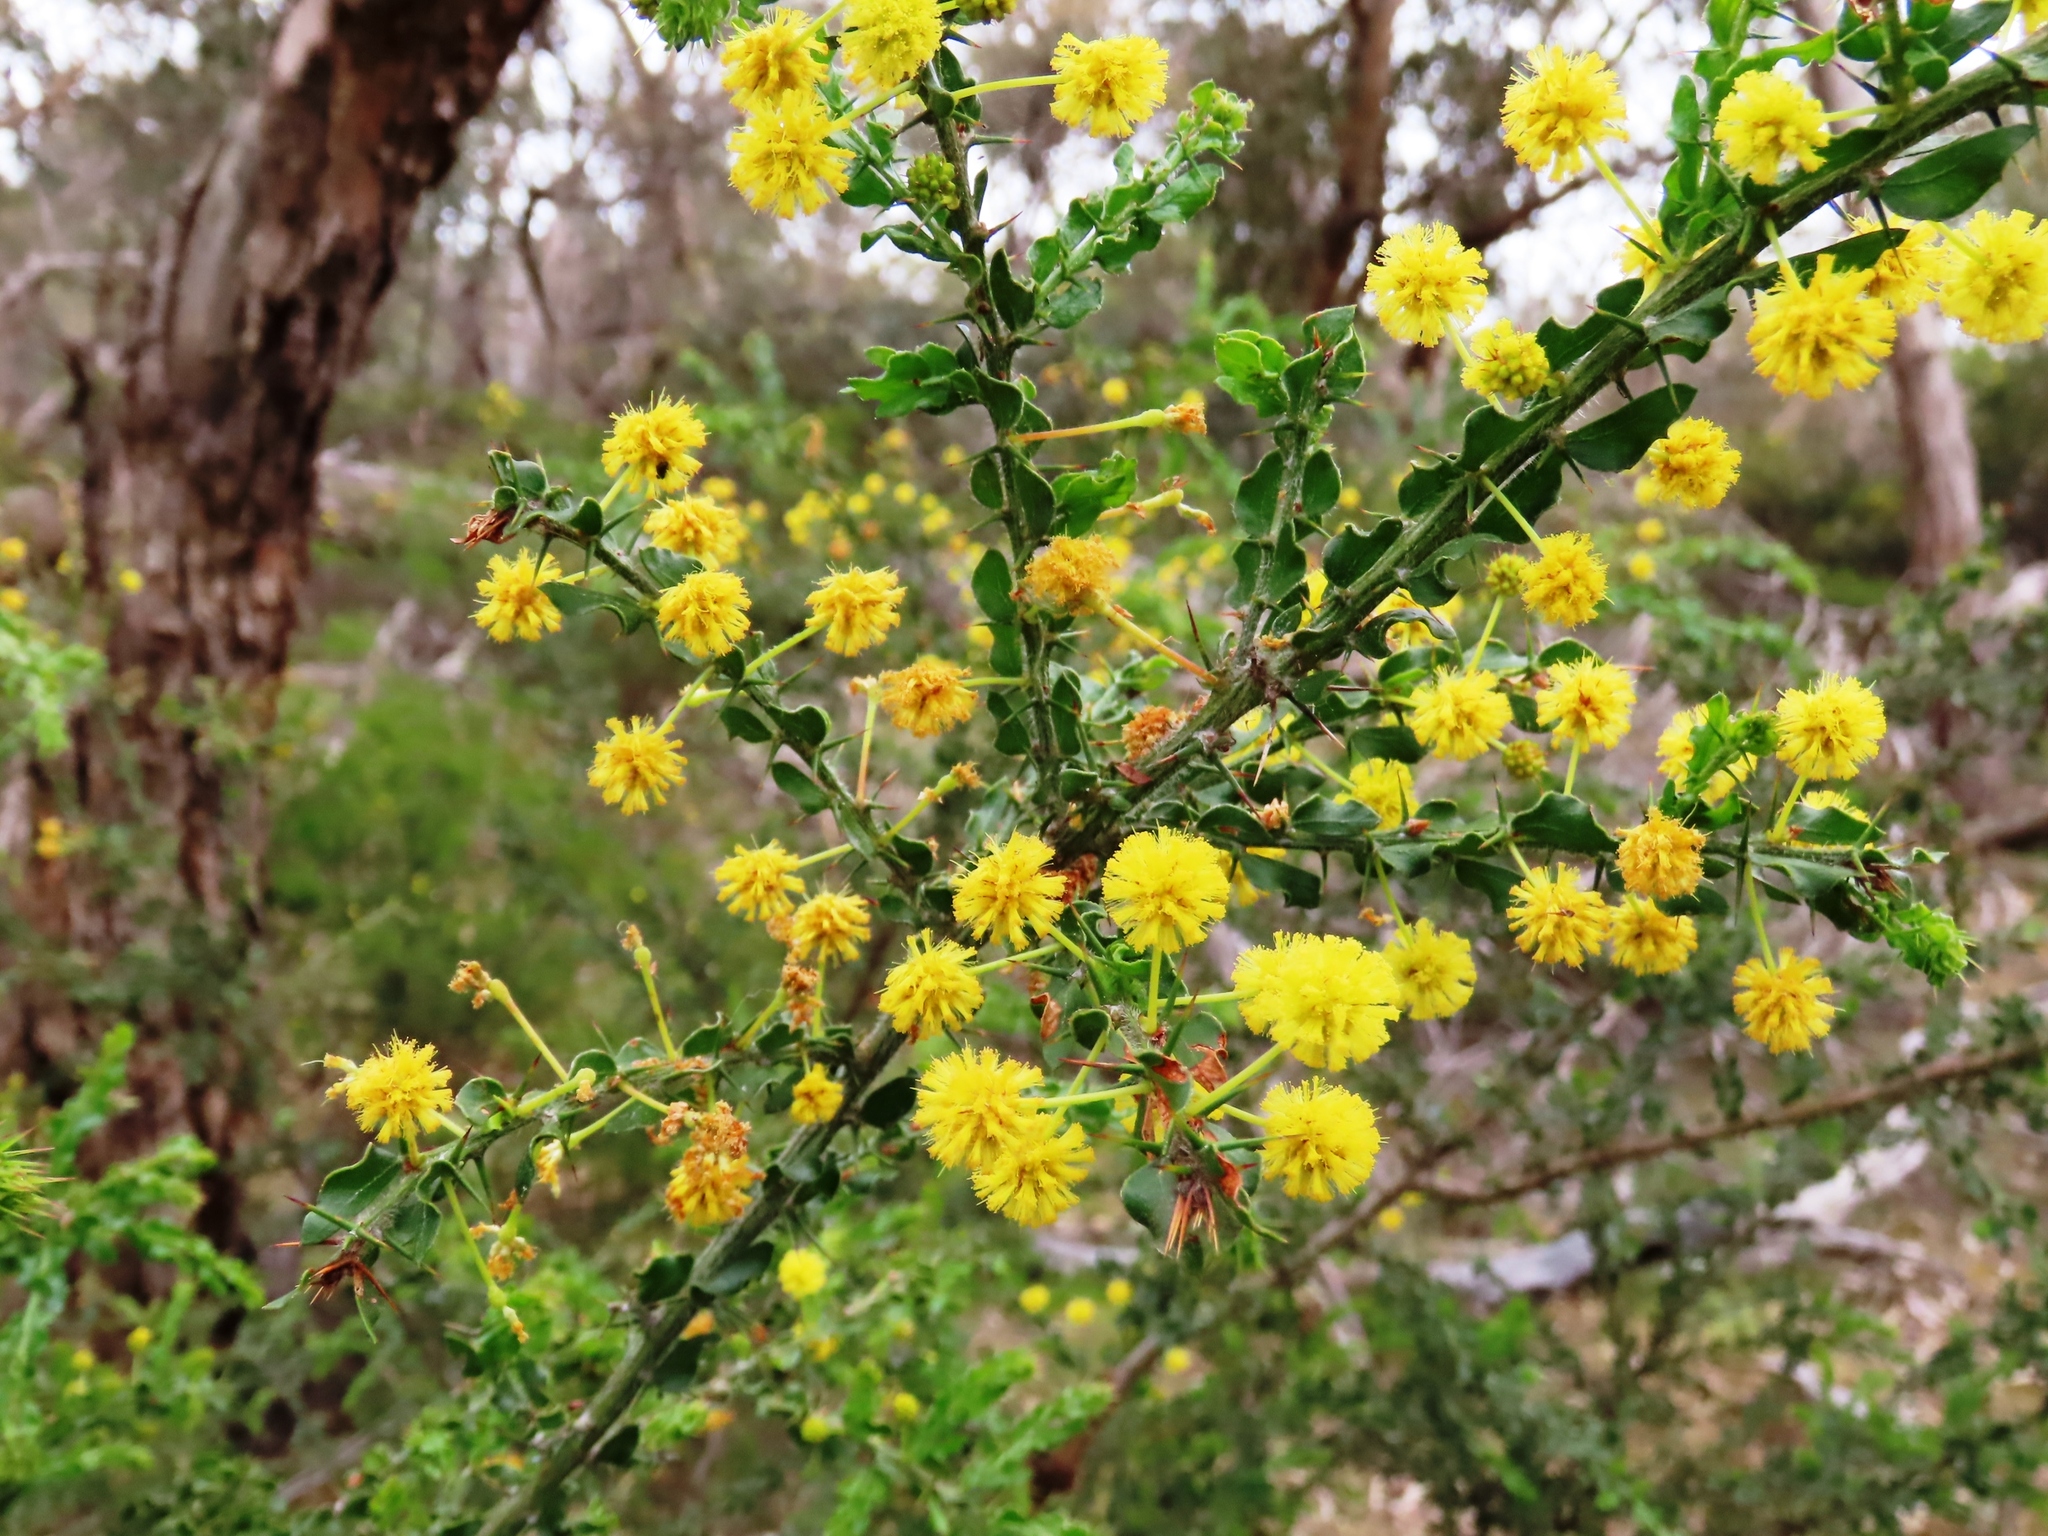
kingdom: Plantae
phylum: Tracheophyta
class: Magnoliopsida
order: Fabales
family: Fabaceae
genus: Acacia
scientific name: Acacia paradoxa
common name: Paradox acacia
